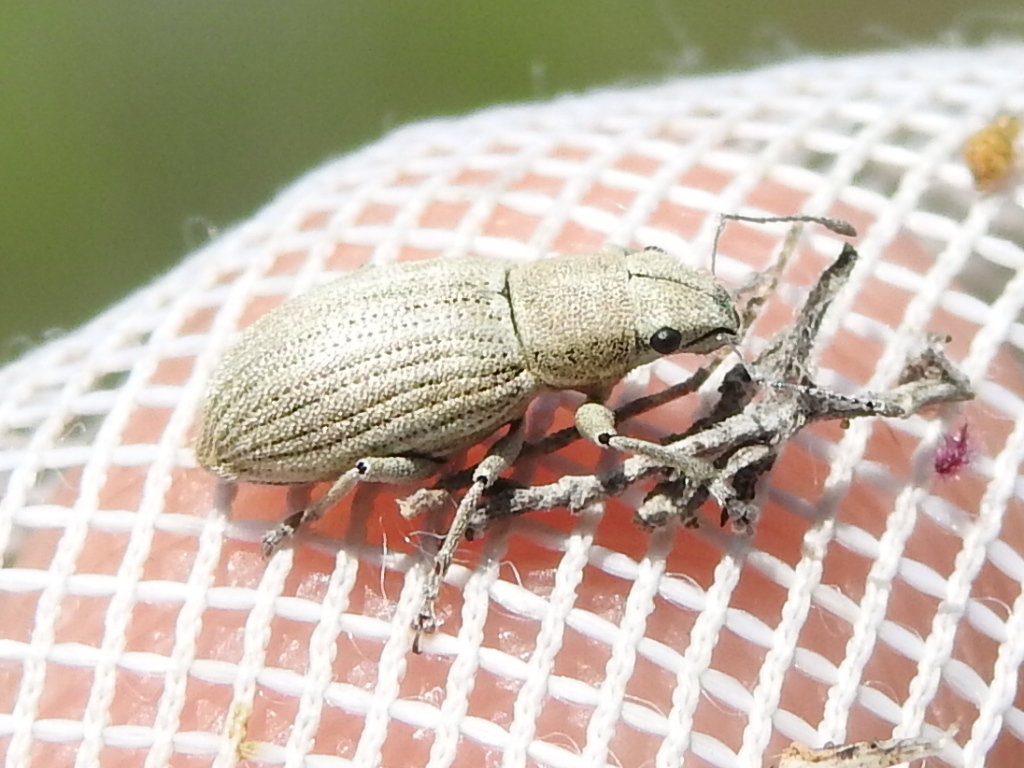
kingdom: Animalia
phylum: Arthropoda
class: Insecta
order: Coleoptera
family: Curculionidae
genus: Aramigus
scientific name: Aramigus tessellatus
